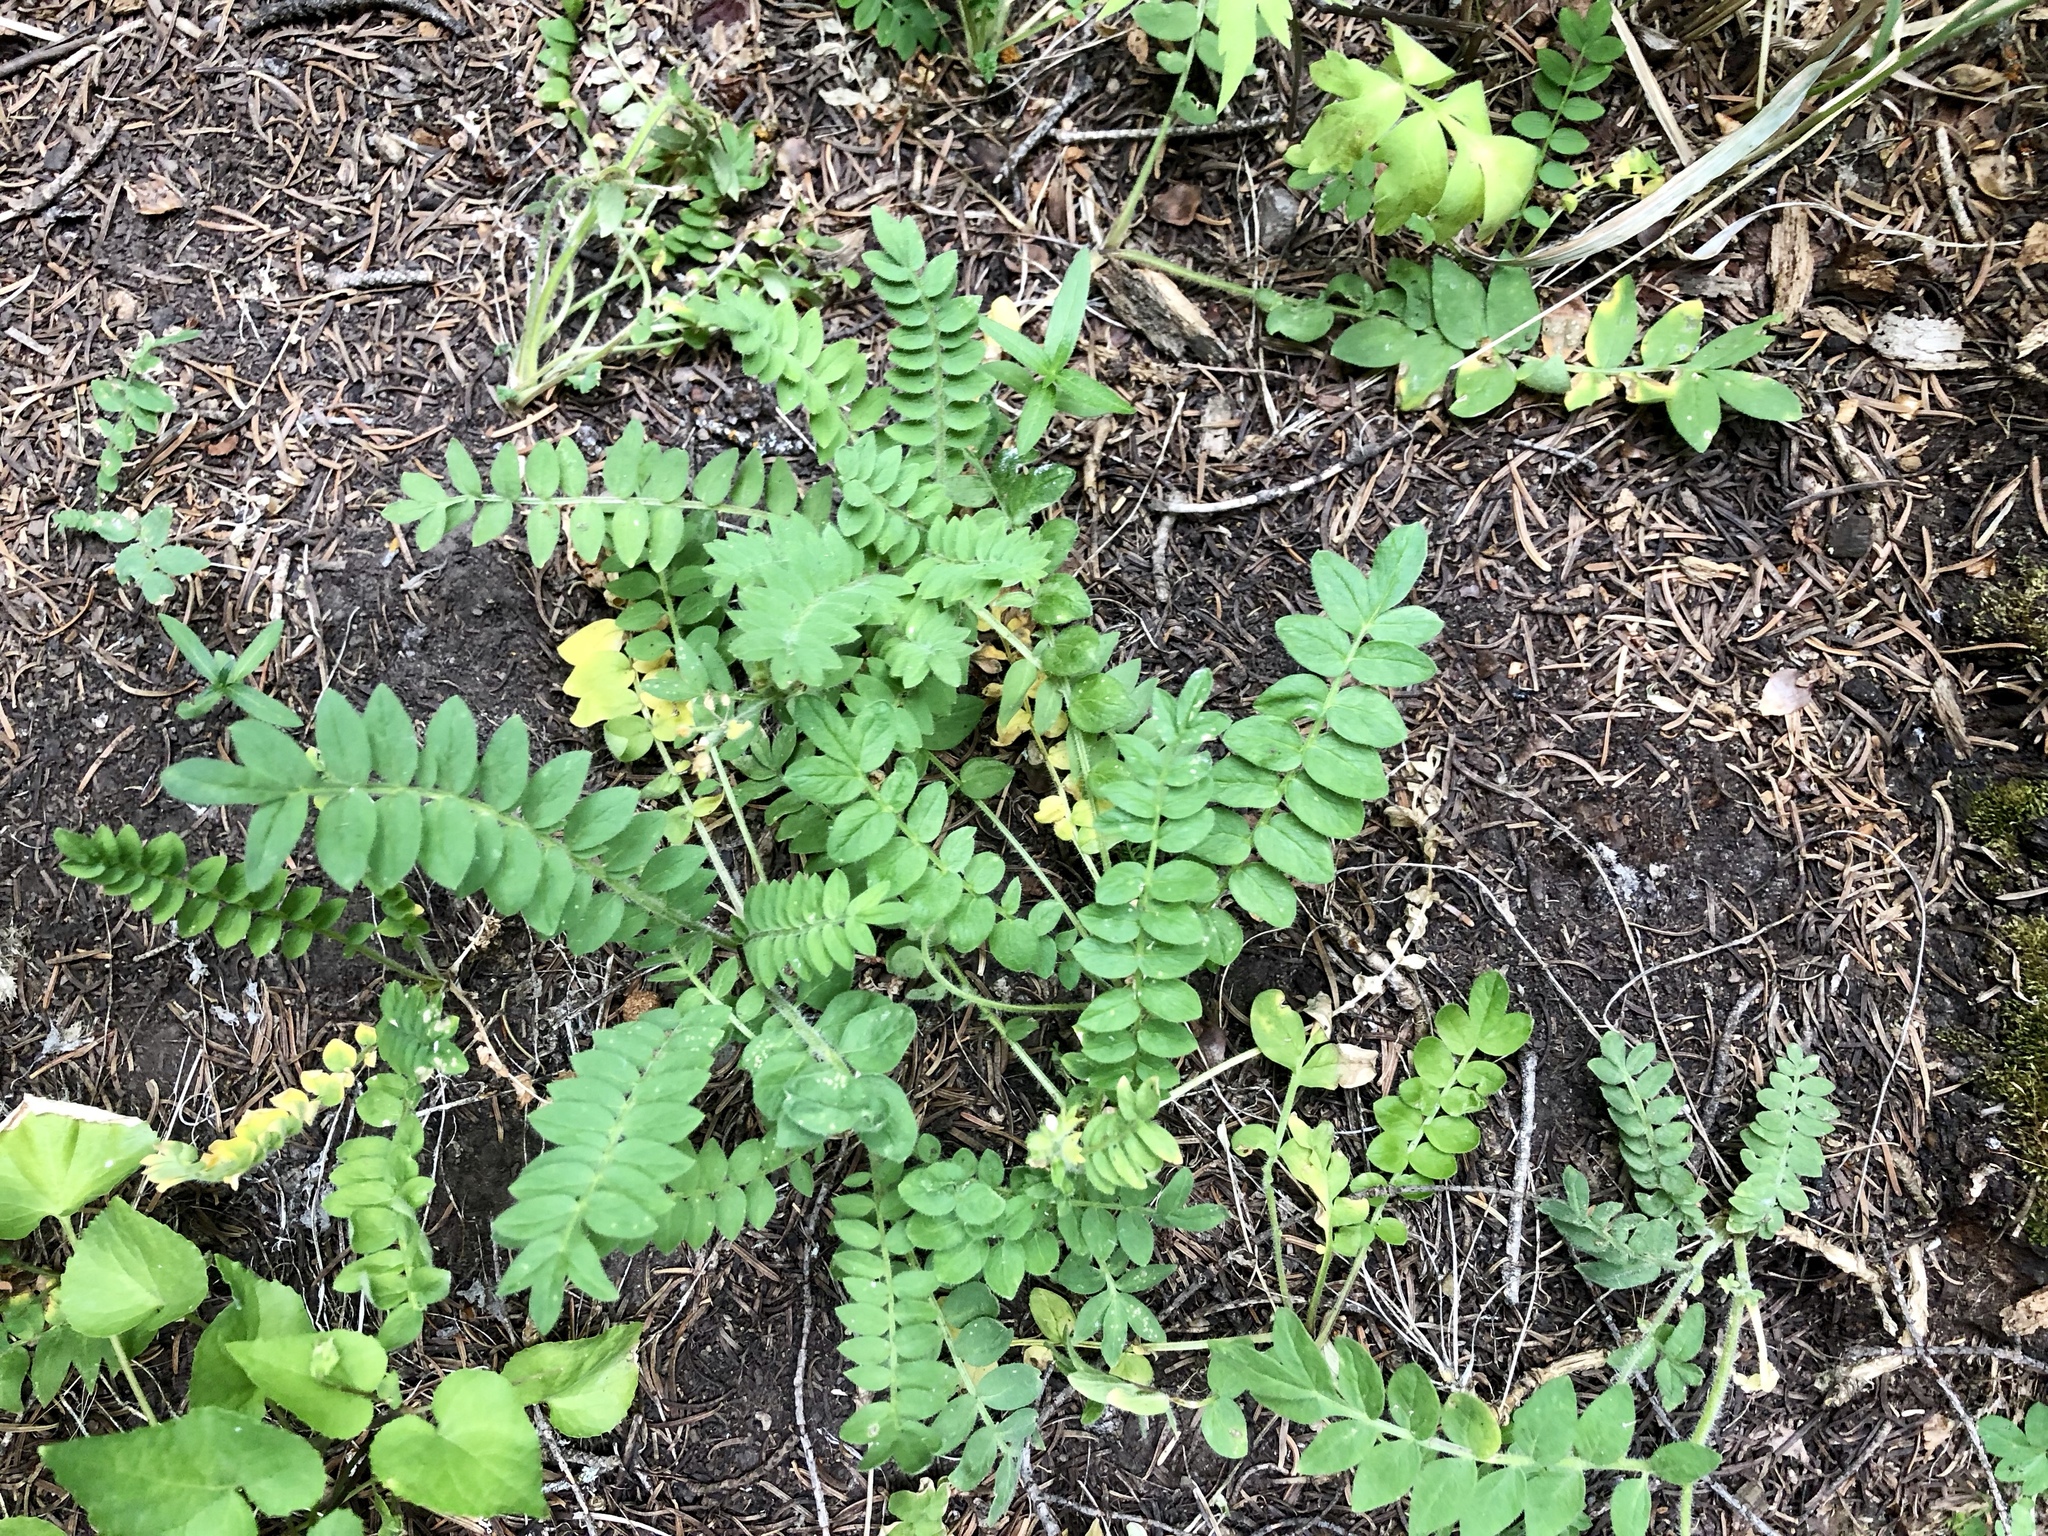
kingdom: Plantae
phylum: Tracheophyta
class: Magnoliopsida
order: Ericales
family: Polemoniaceae
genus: Polemonium
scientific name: Polemonium pulcherrimum
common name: Short jacob's-ladder
